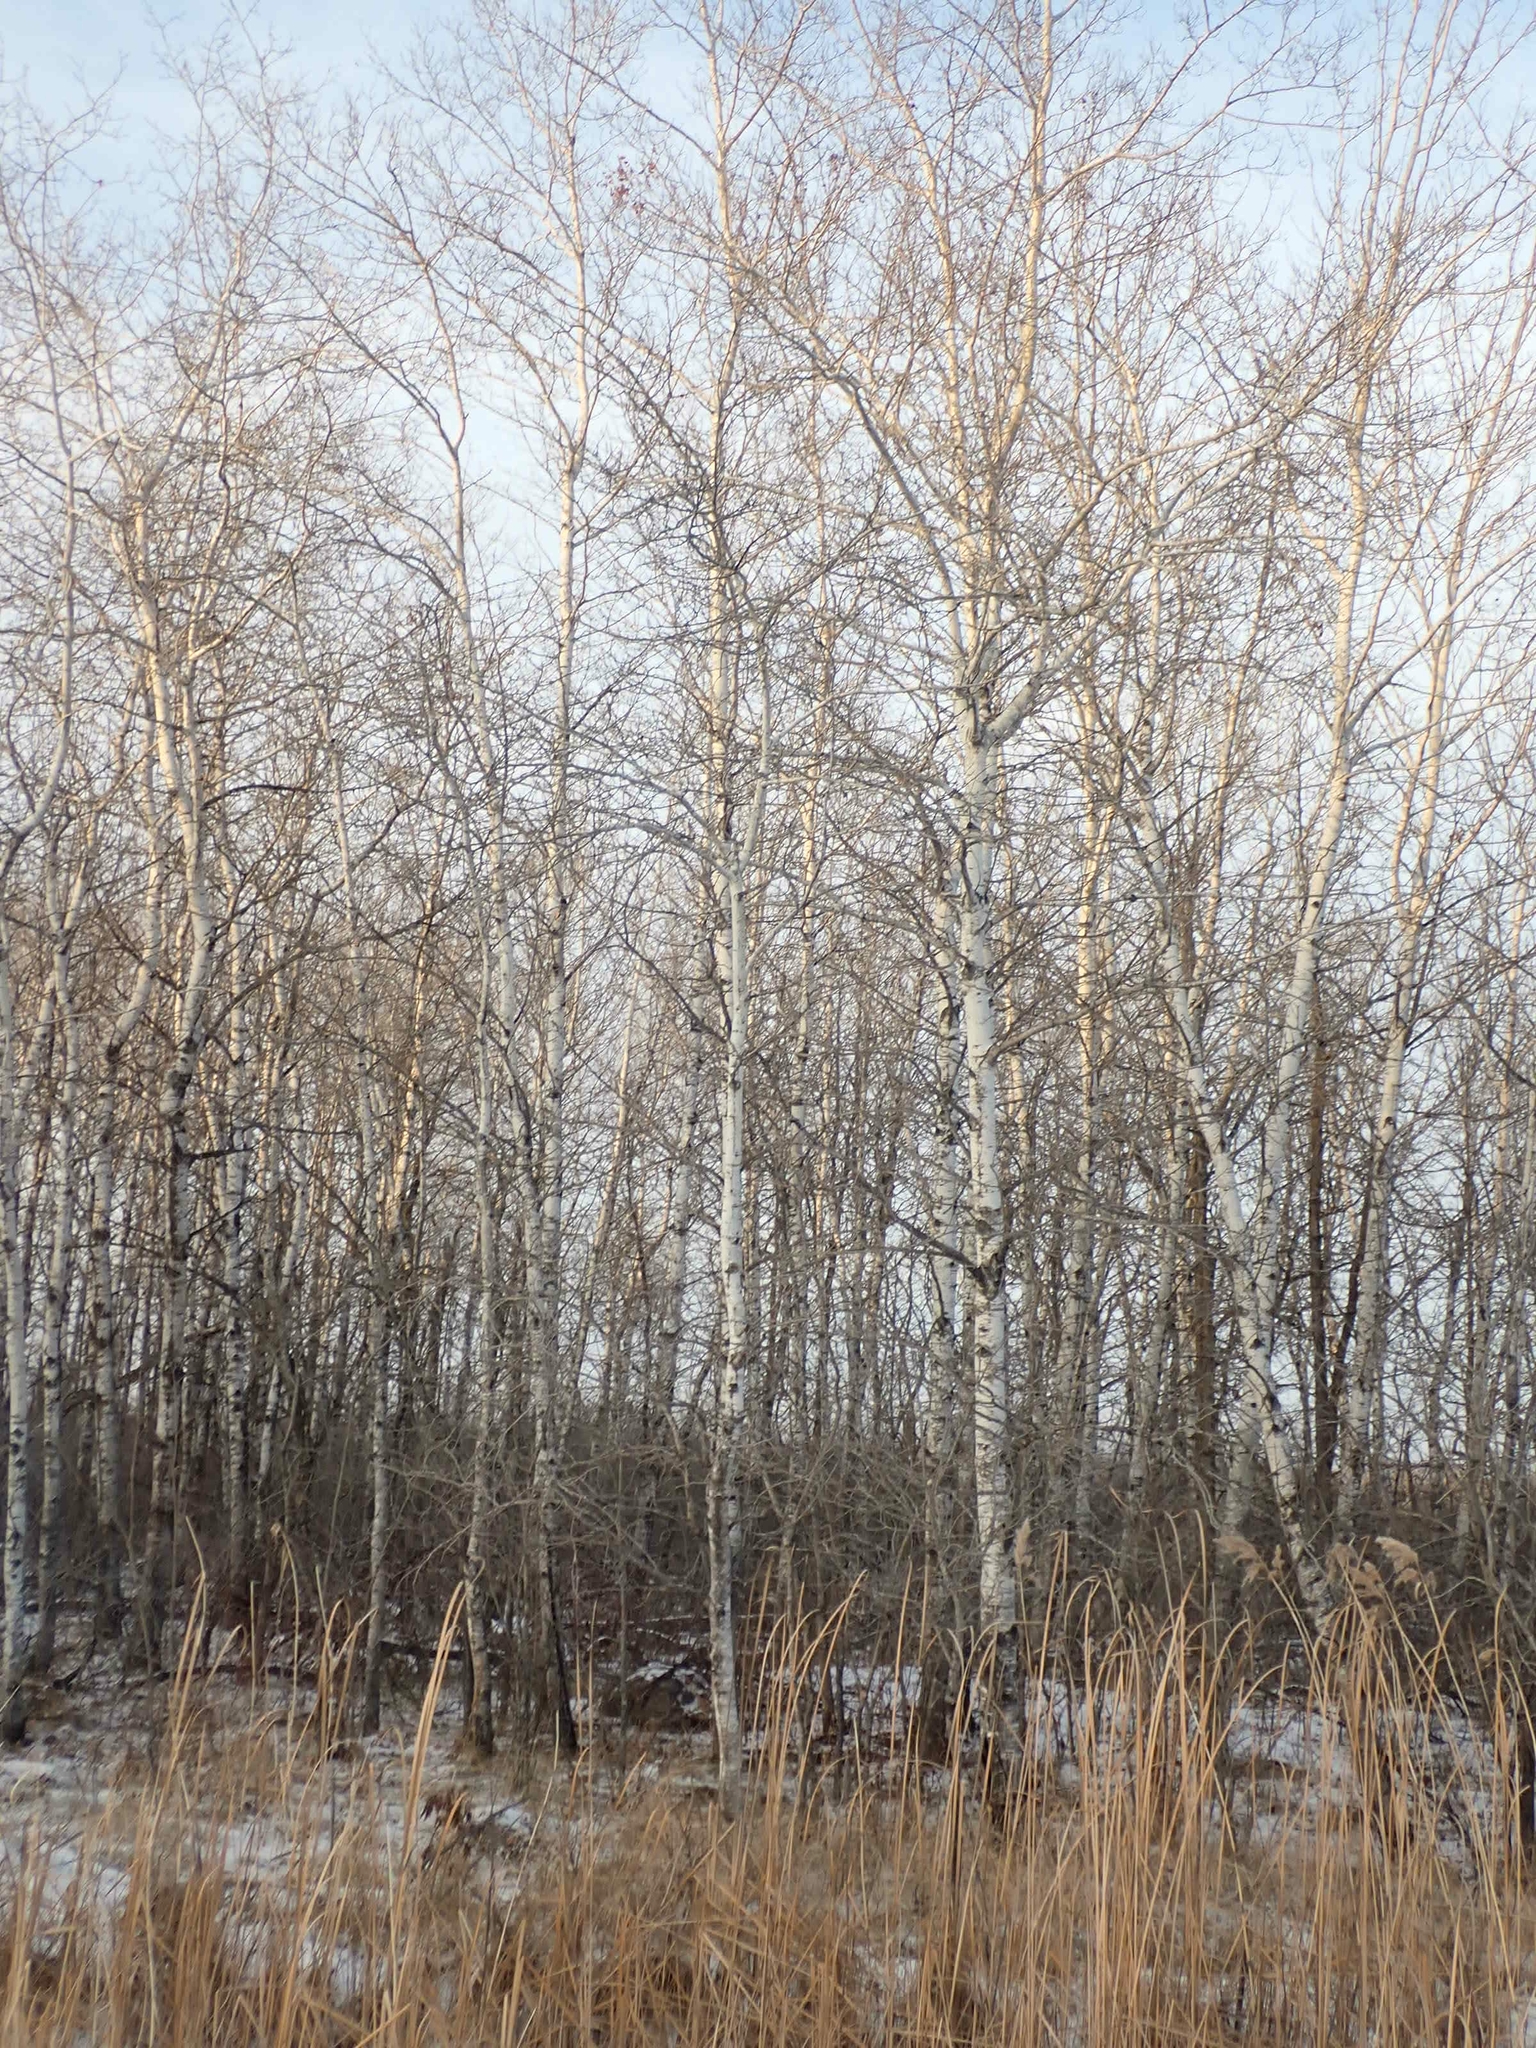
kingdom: Plantae
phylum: Tracheophyta
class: Magnoliopsida
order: Malpighiales
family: Salicaceae
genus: Populus
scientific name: Populus tremuloides
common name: Quaking aspen
